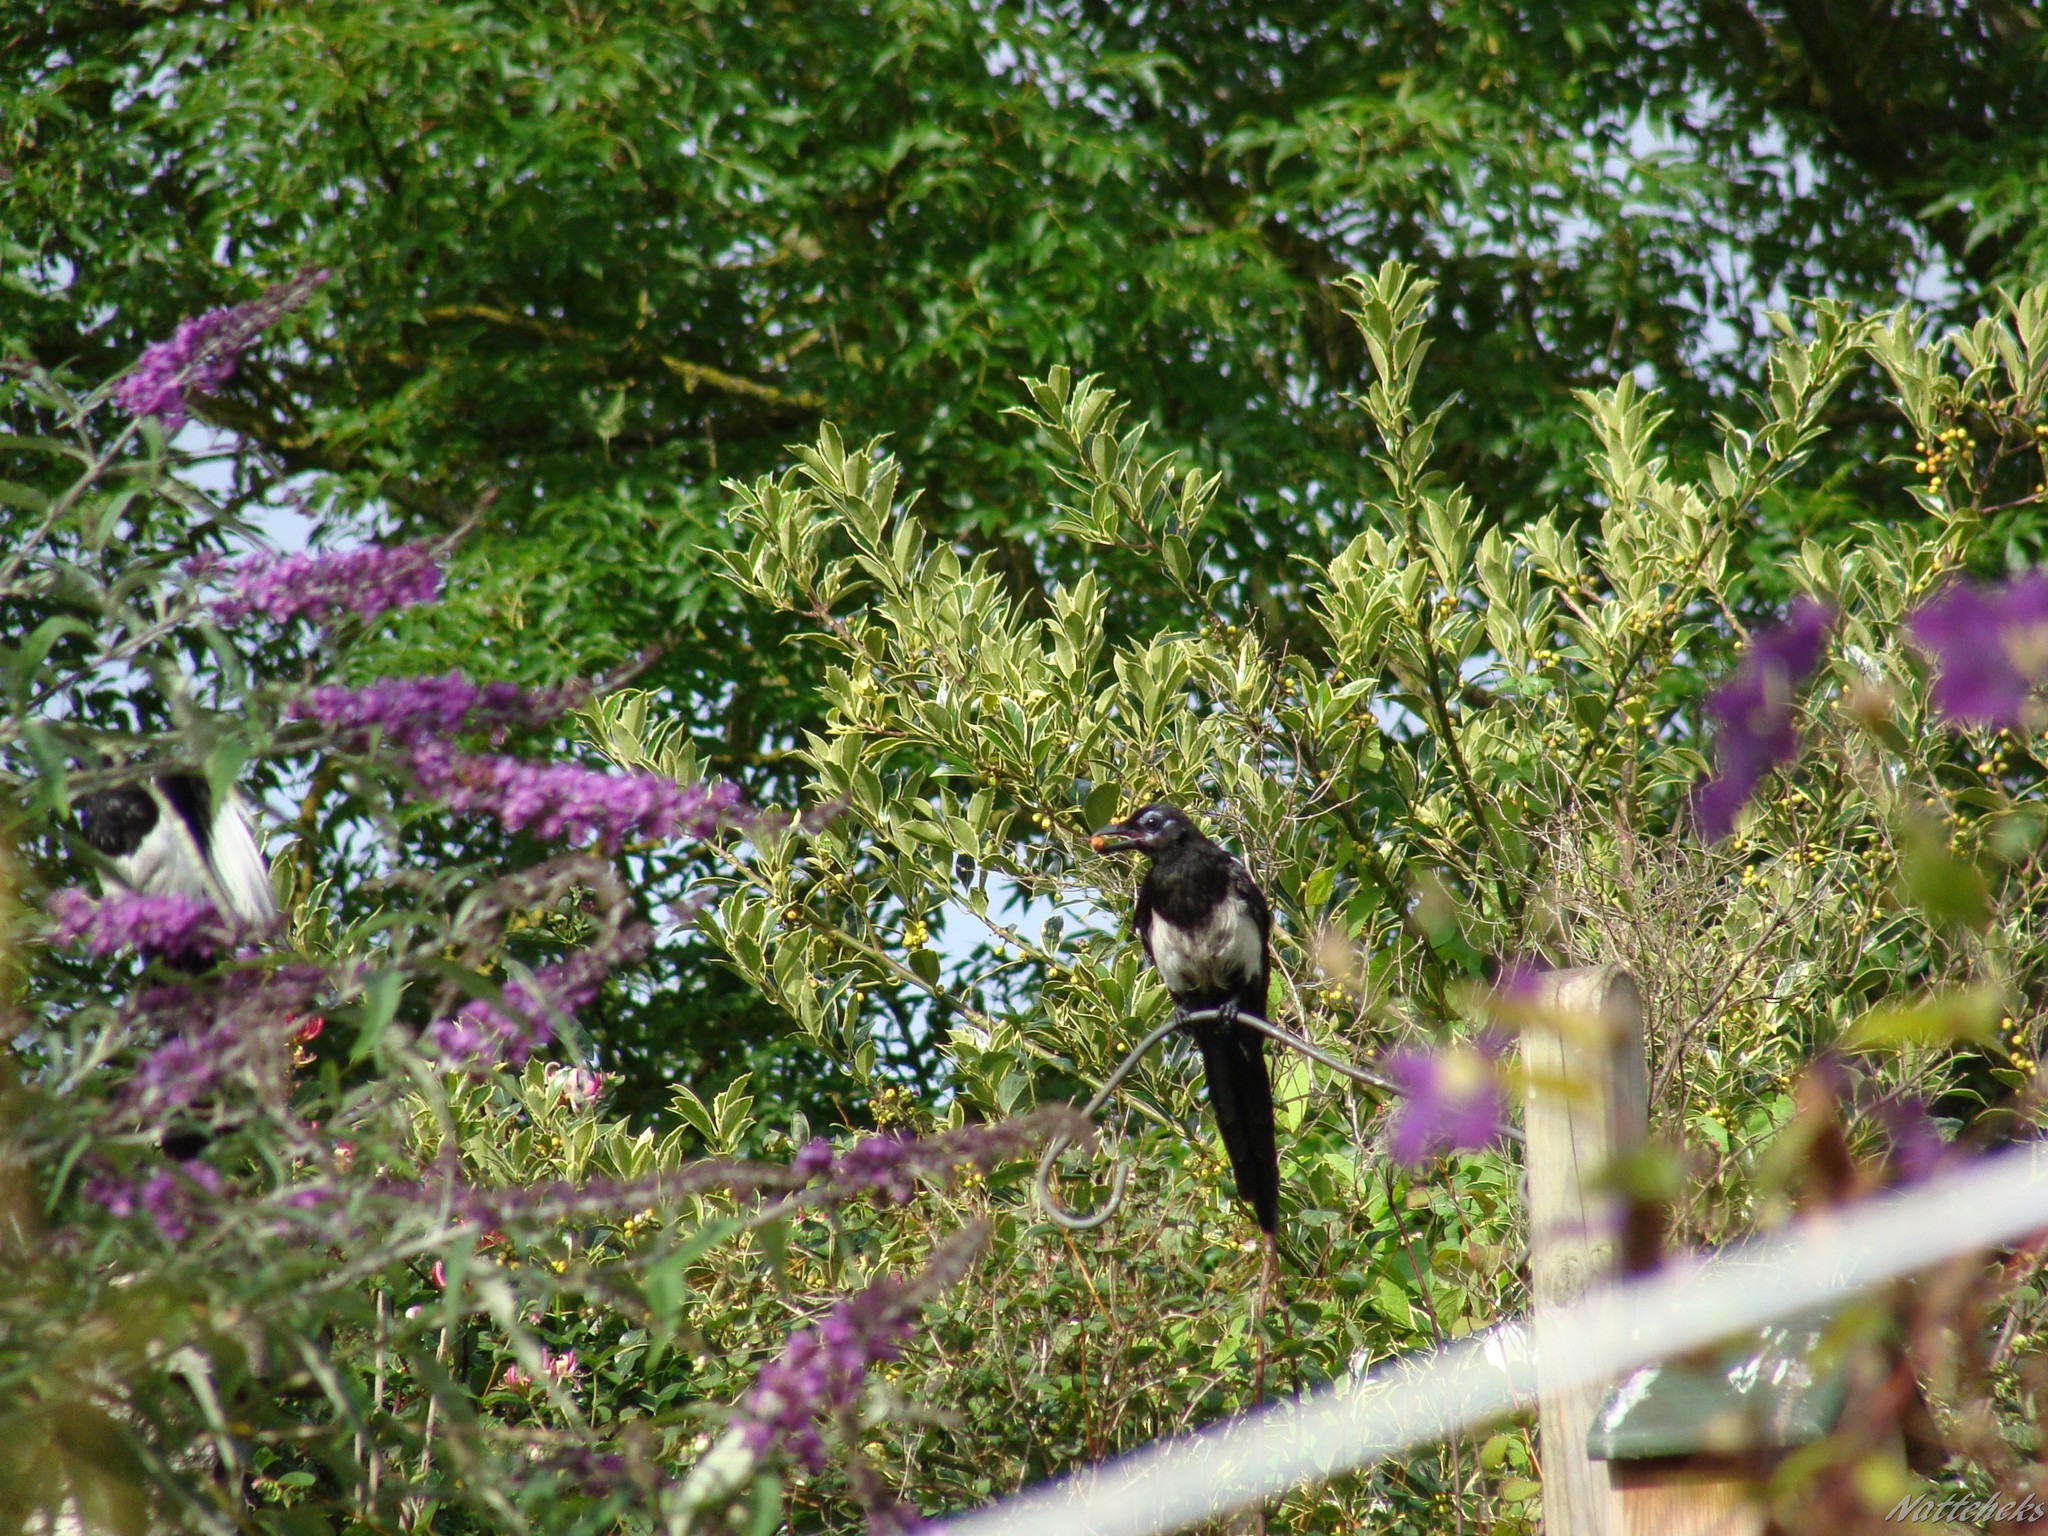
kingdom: Animalia
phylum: Chordata
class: Aves
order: Passeriformes
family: Corvidae
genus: Pica
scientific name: Pica pica
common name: Eurasian magpie
